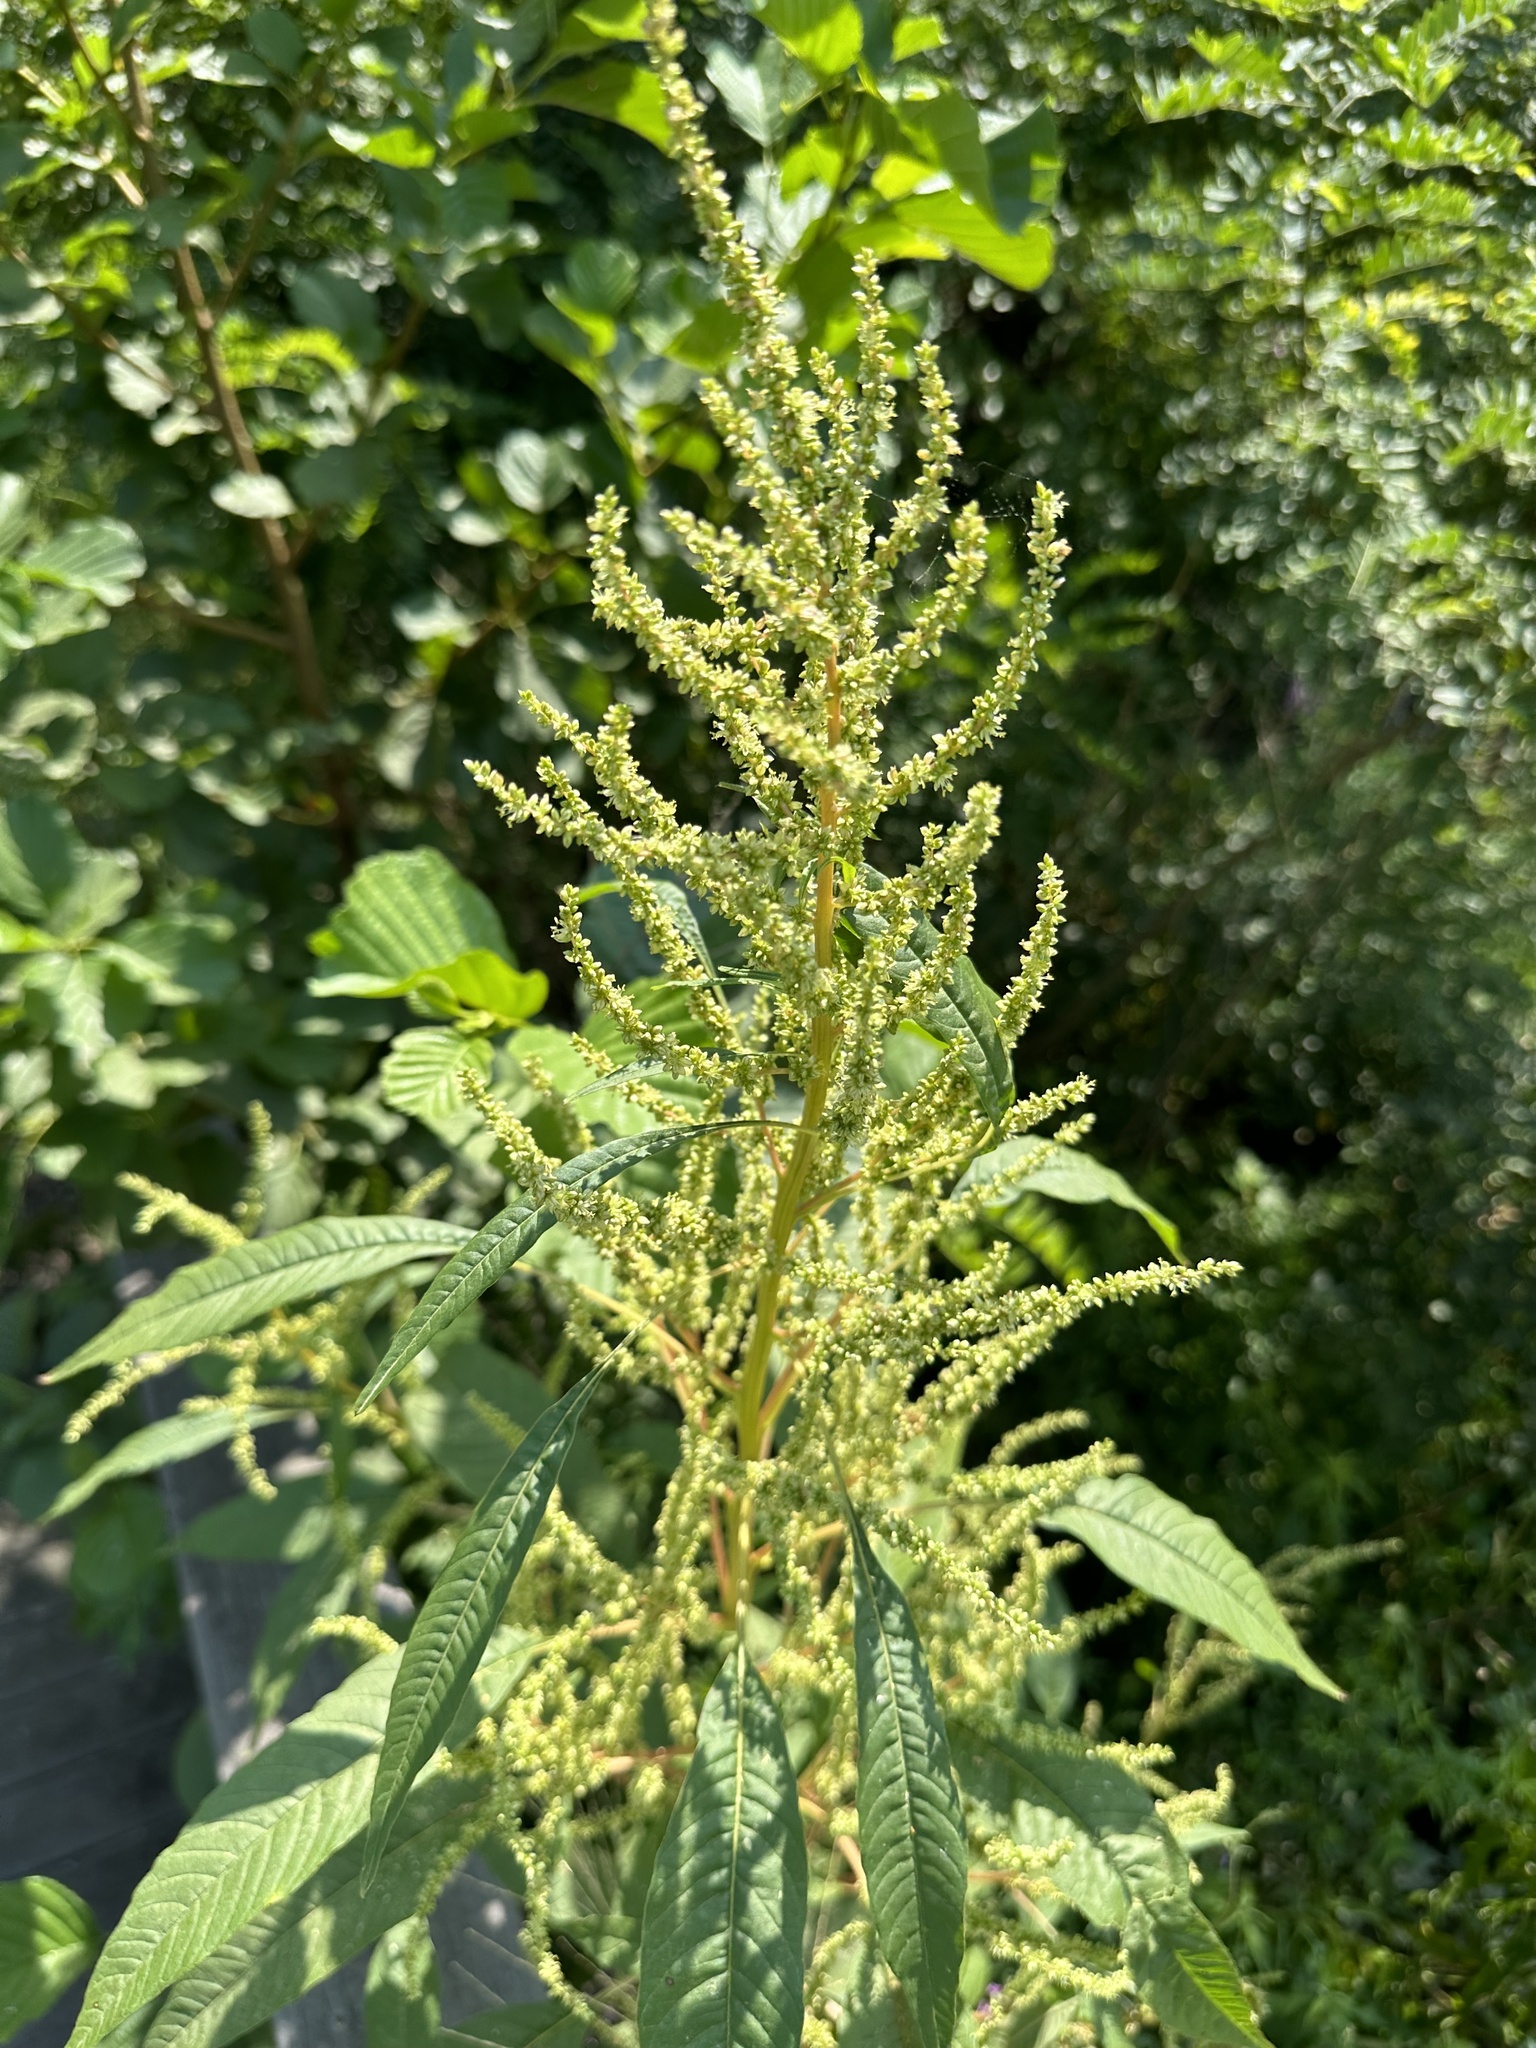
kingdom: Plantae
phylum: Tracheophyta
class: Magnoliopsida
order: Caryophyllales
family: Amaranthaceae
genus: Amaranthus
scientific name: Amaranthus cannabinus
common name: Salt-marsh water-hemp
